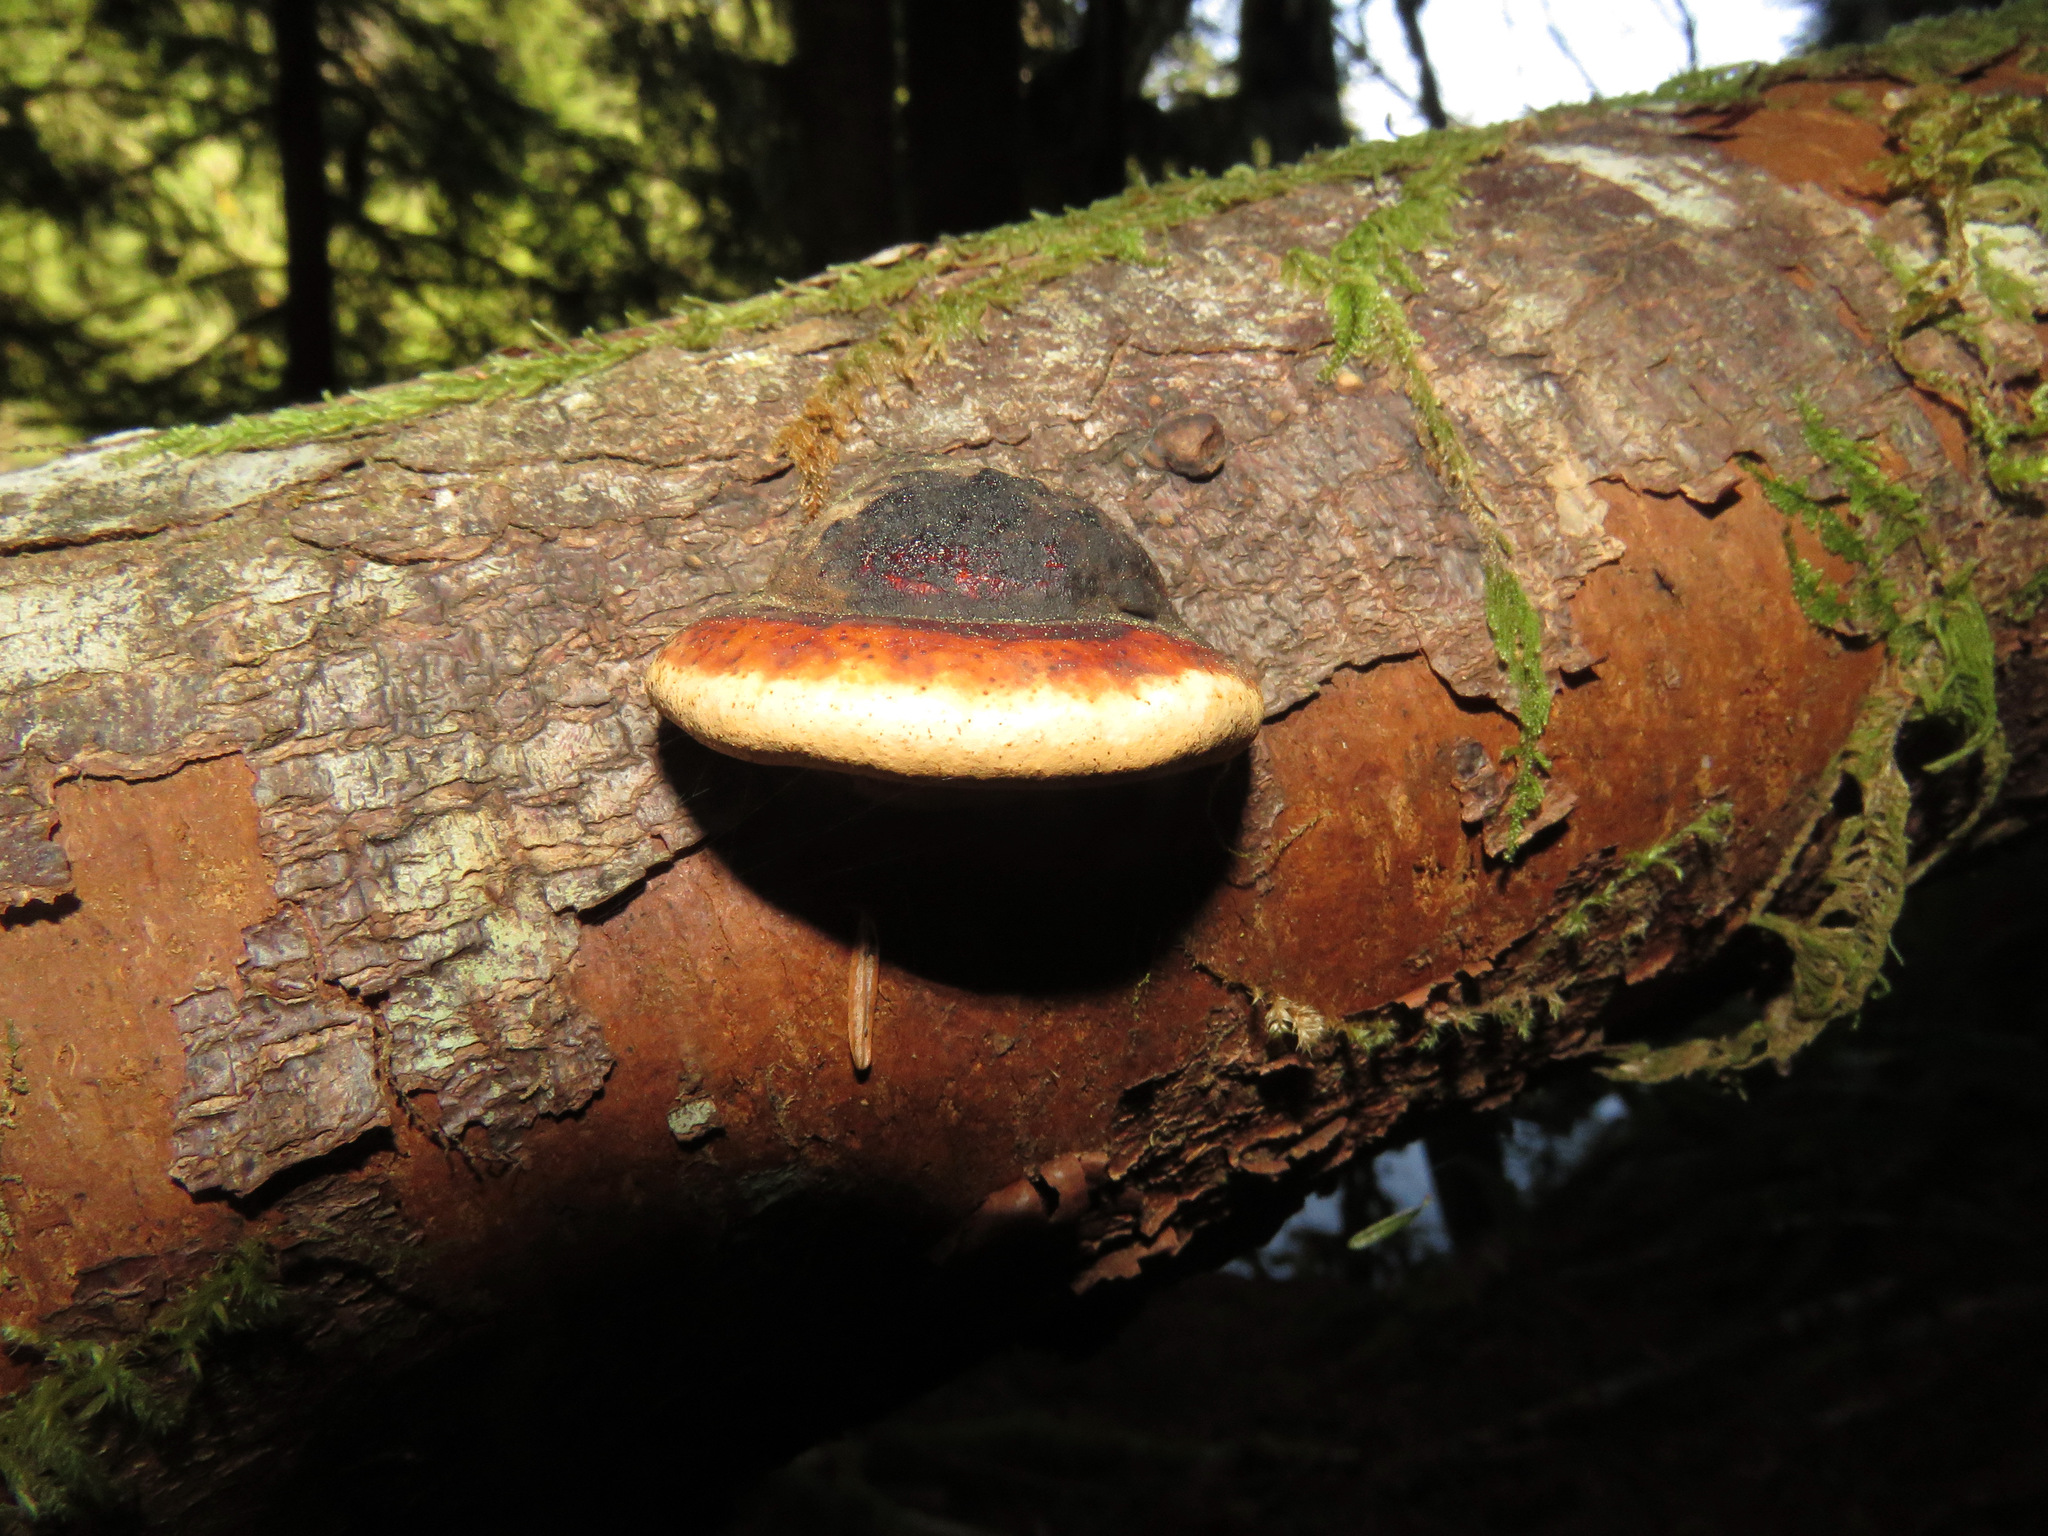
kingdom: Fungi
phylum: Basidiomycota
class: Agaricomycetes
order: Polyporales
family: Fomitopsidaceae
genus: Fomitopsis
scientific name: Fomitopsis mounceae
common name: Northern red belt
